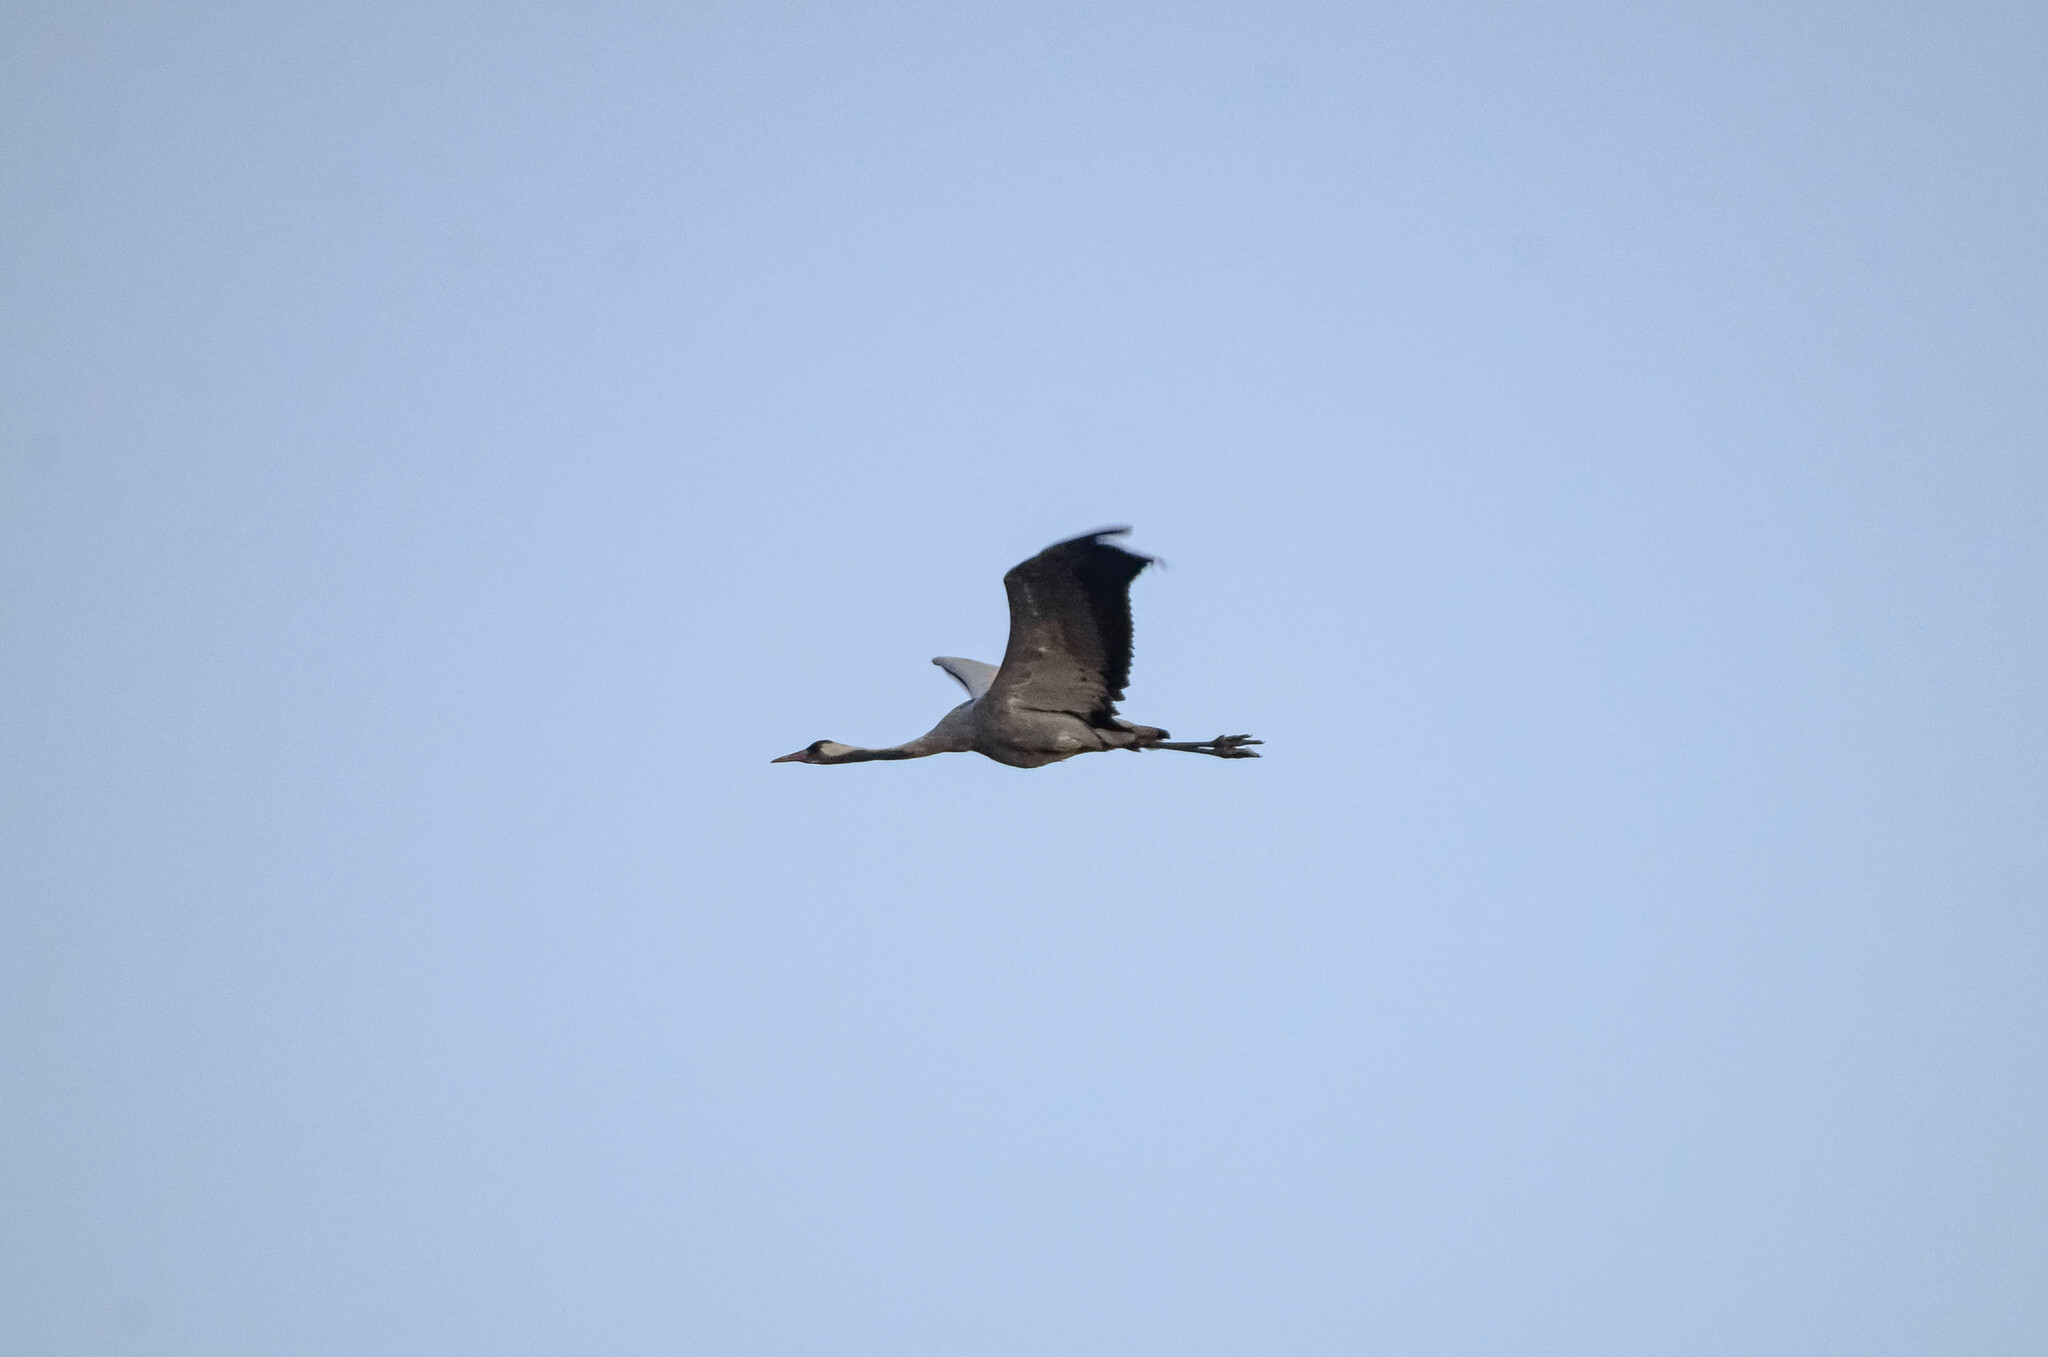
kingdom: Animalia
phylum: Chordata
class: Aves
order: Gruiformes
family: Gruidae
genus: Grus
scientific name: Grus grus
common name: Common crane
